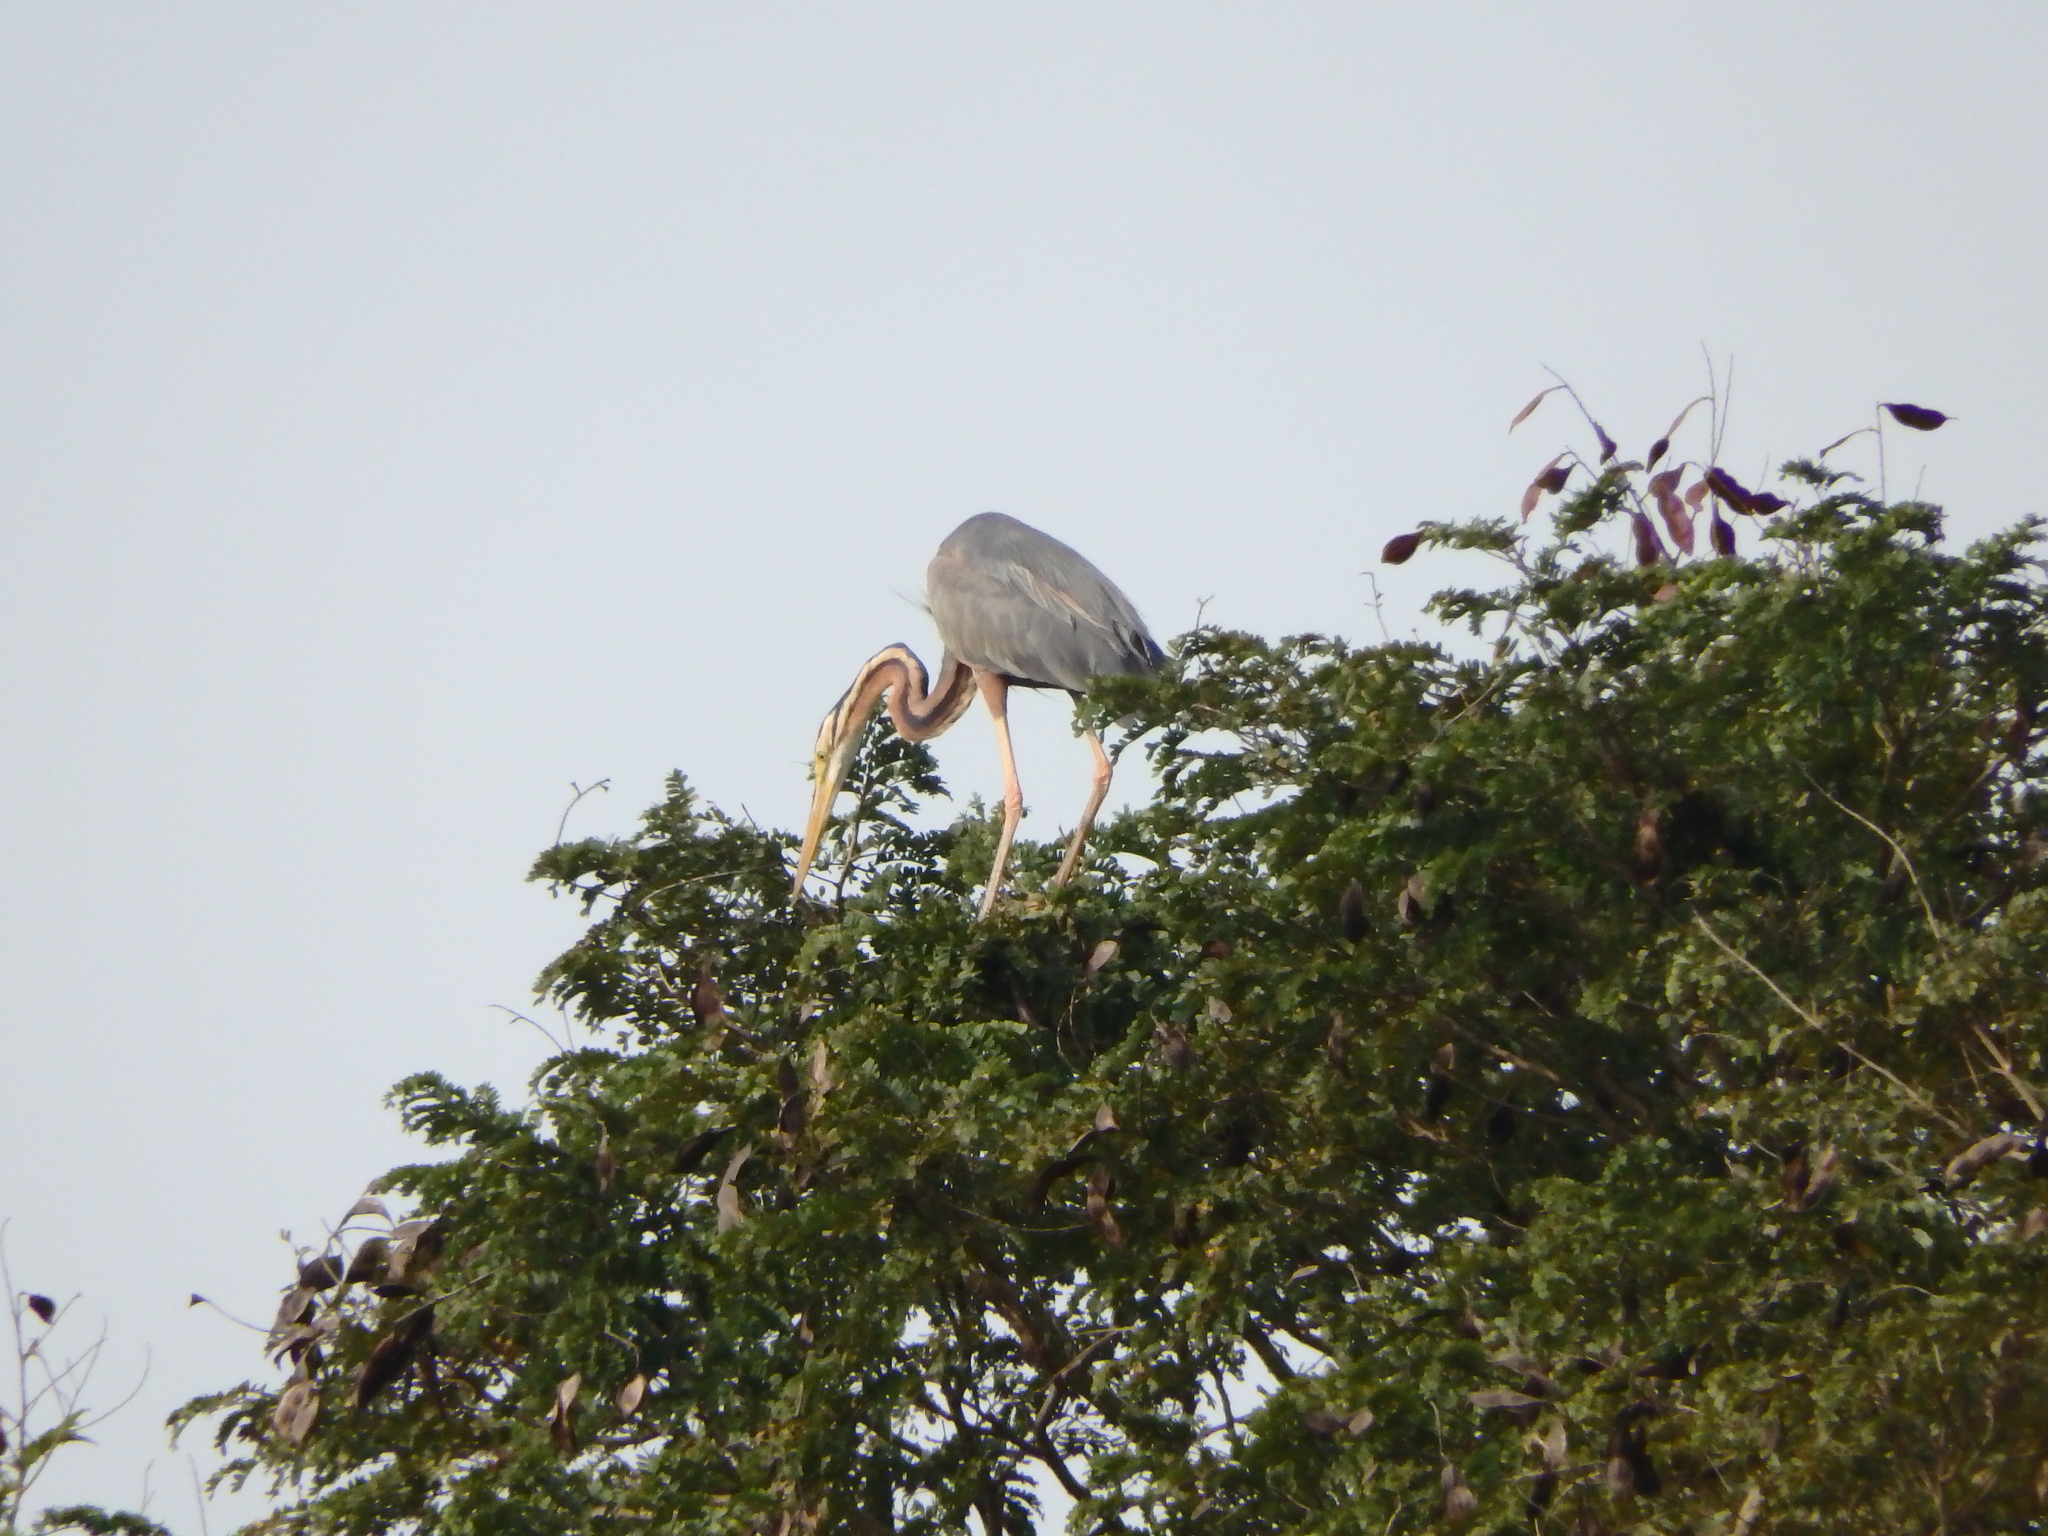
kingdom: Animalia
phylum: Chordata
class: Aves
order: Pelecaniformes
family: Ardeidae
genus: Ardea
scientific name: Ardea purpurea
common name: Purple heron
